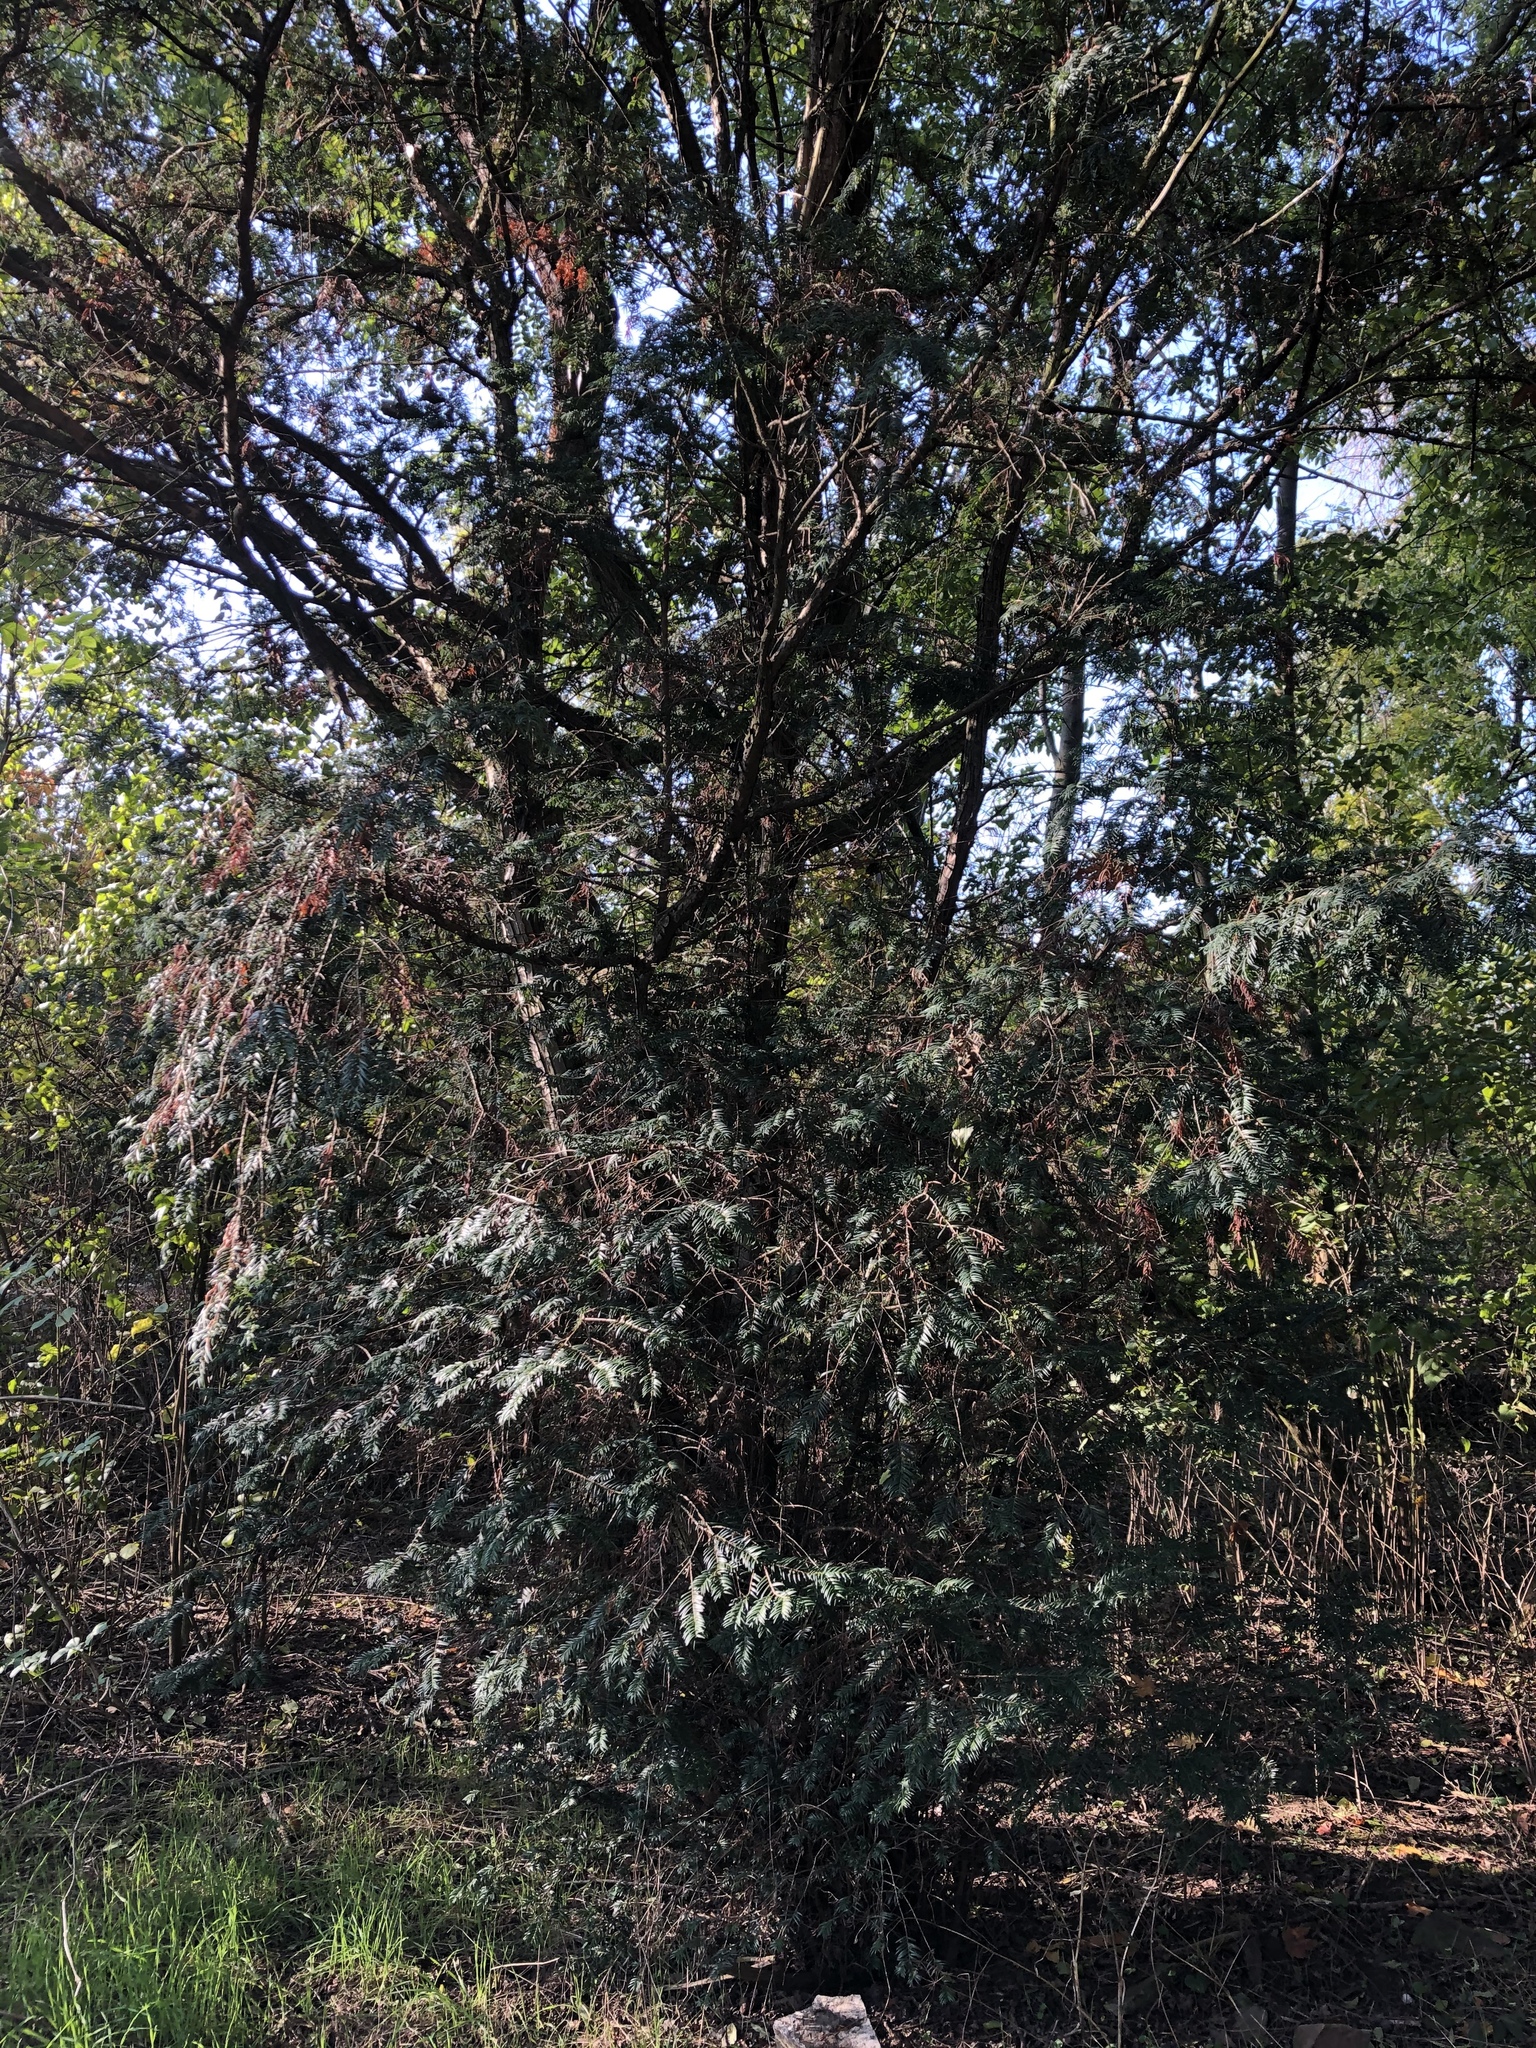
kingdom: Plantae
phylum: Tracheophyta
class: Pinopsida
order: Pinales
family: Taxaceae
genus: Taxus
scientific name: Taxus baccata
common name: Yew
